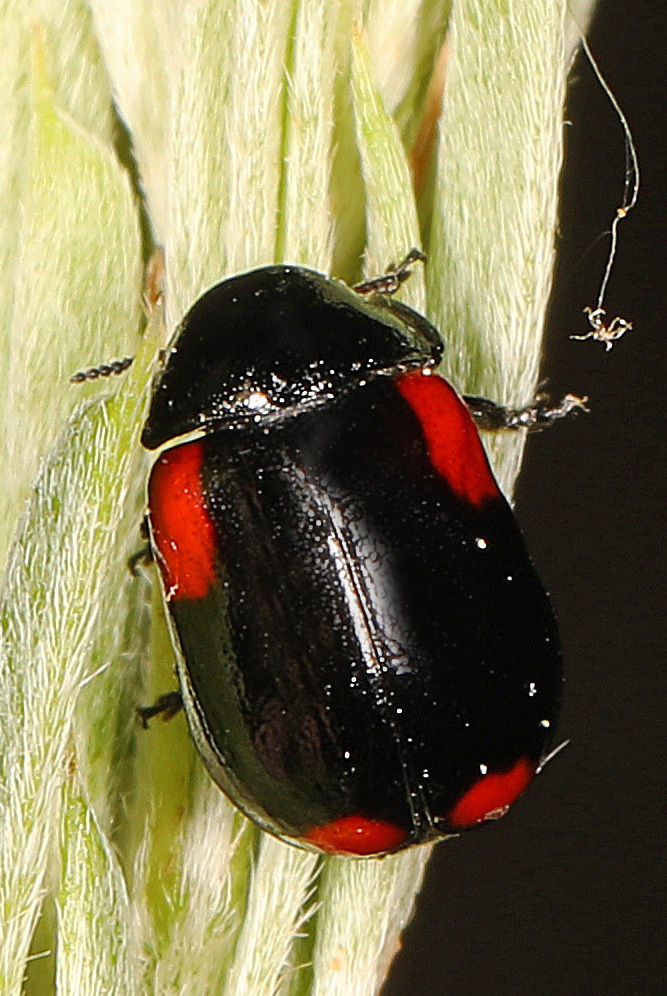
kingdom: Animalia
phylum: Arthropoda
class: Insecta
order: Coleoptera
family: Chrysomelidae
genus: Babia
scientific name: Babia quadriguttata
